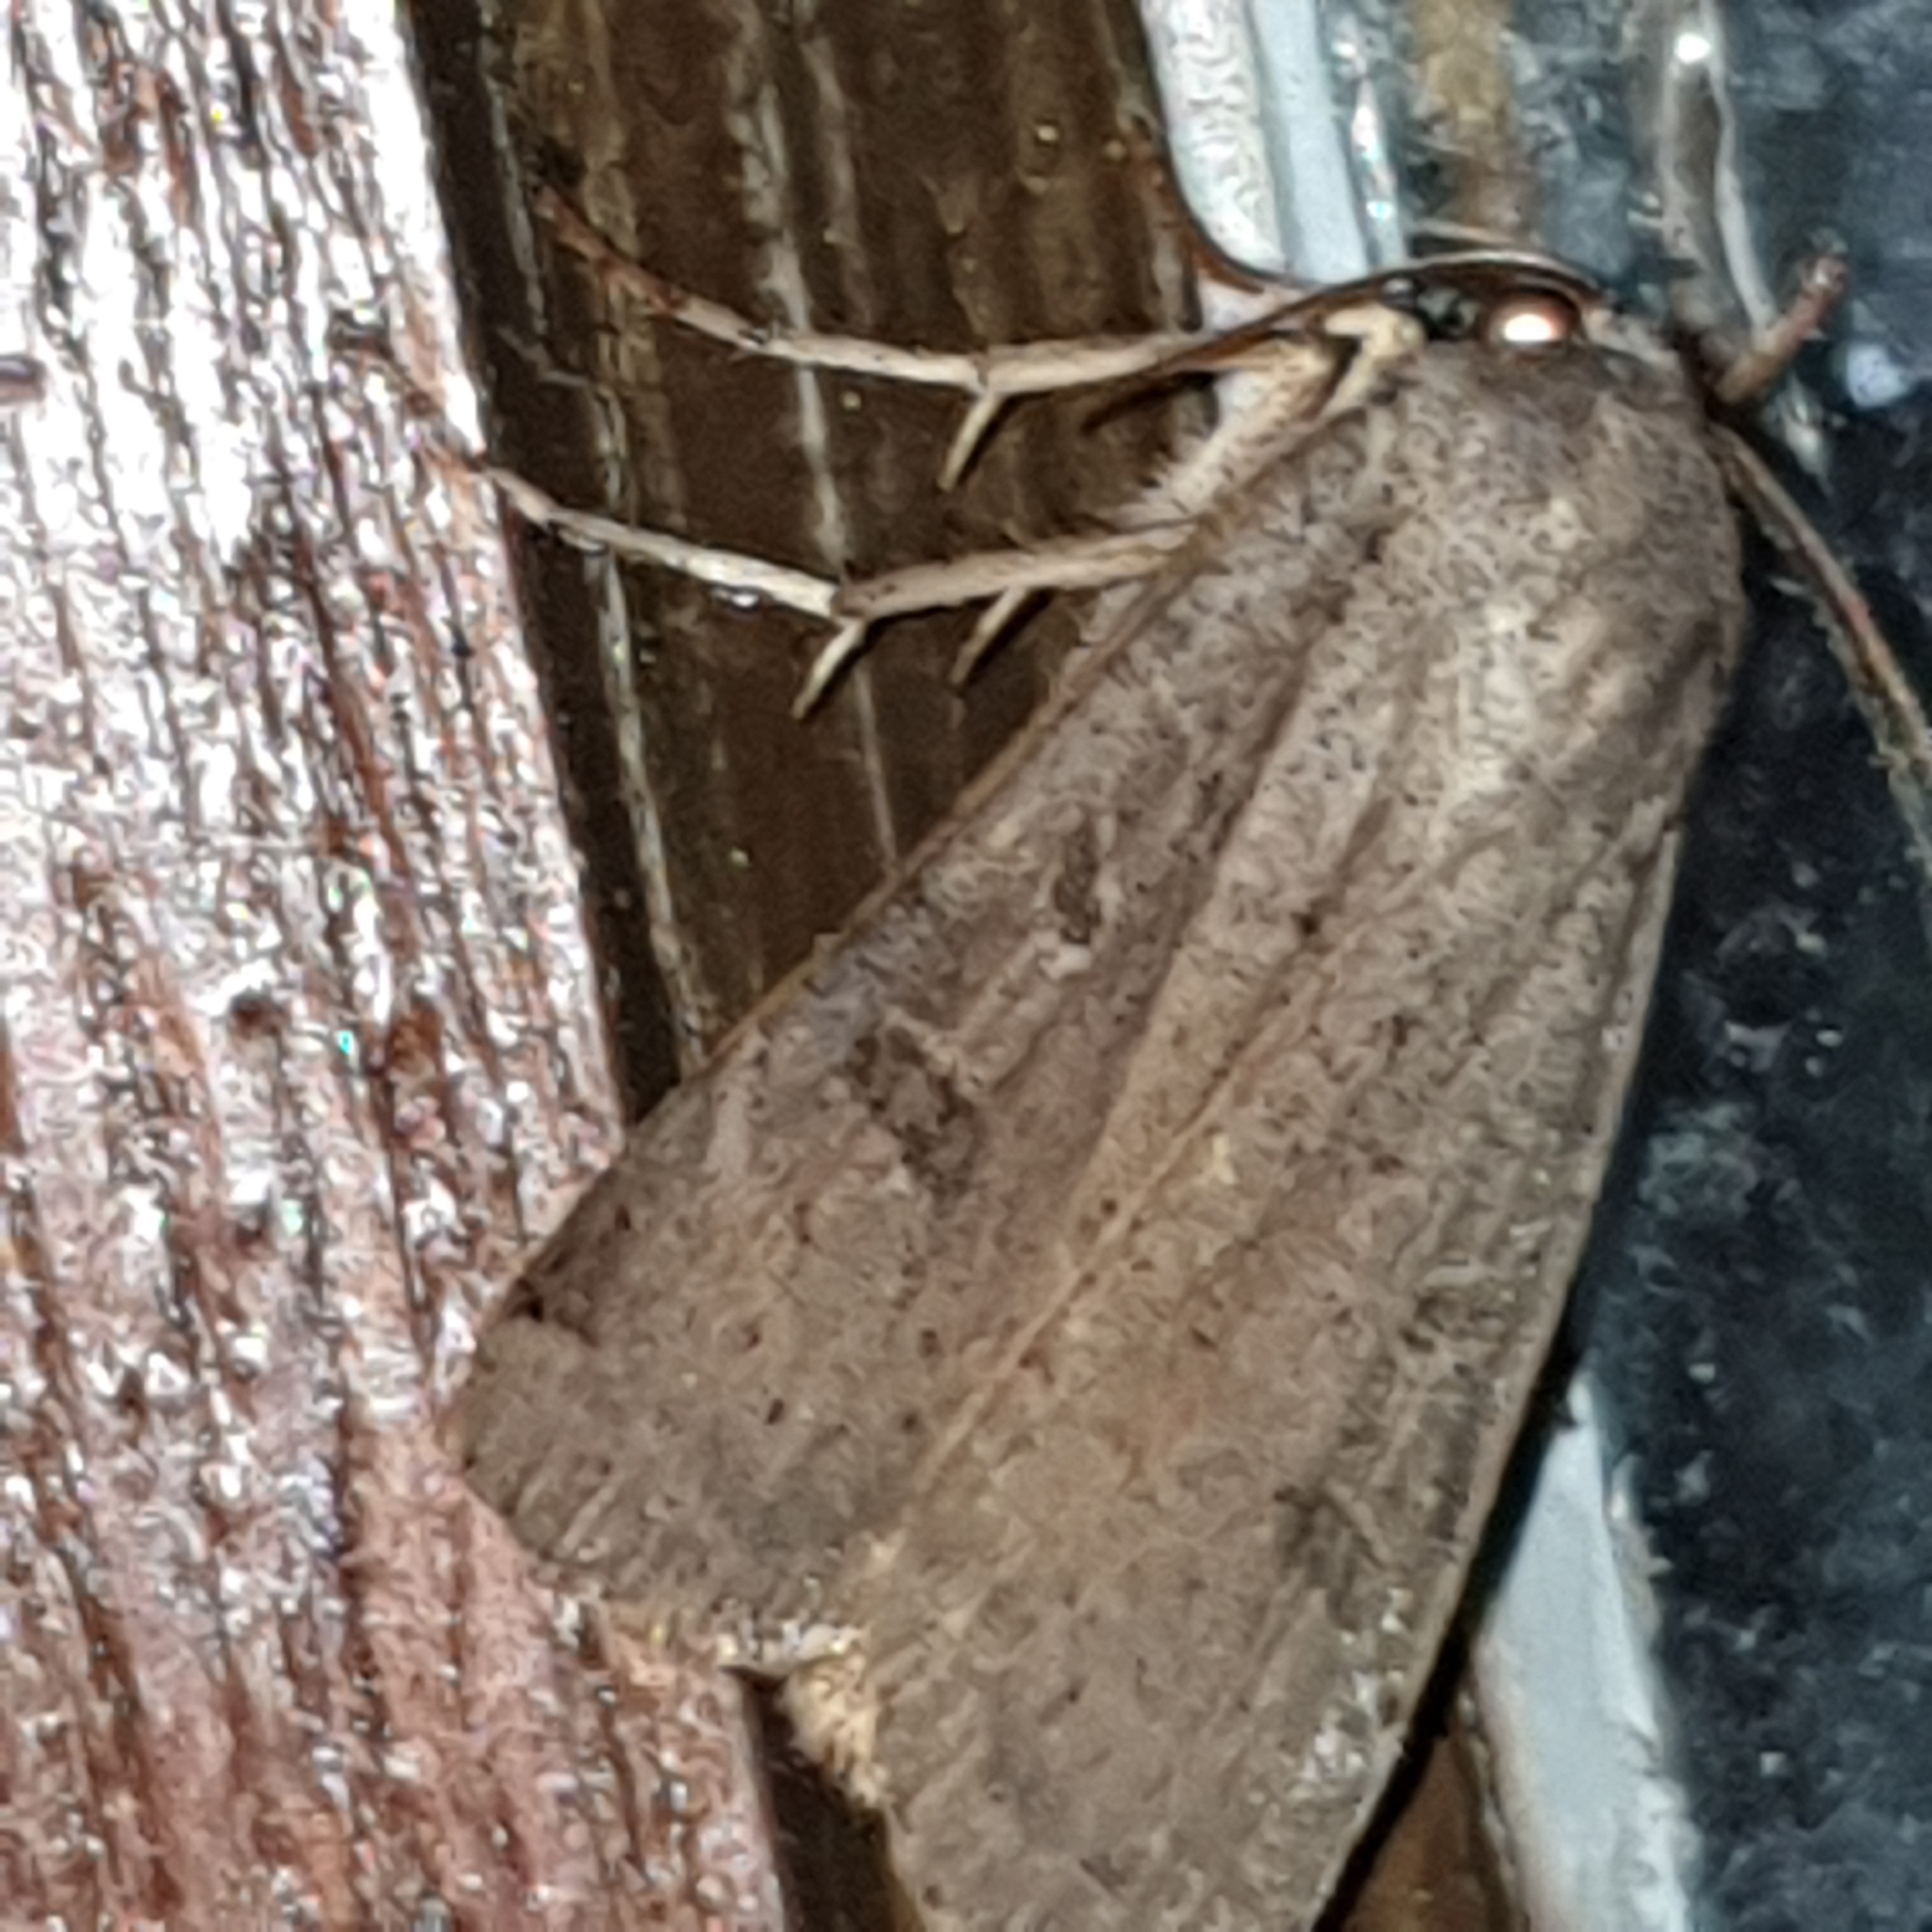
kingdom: Animalia
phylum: Arthropoda
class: Insecta
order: Lepidoptera
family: Noctuidae
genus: Noctua
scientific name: Noctua comes
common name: Lesser yellow underwing
